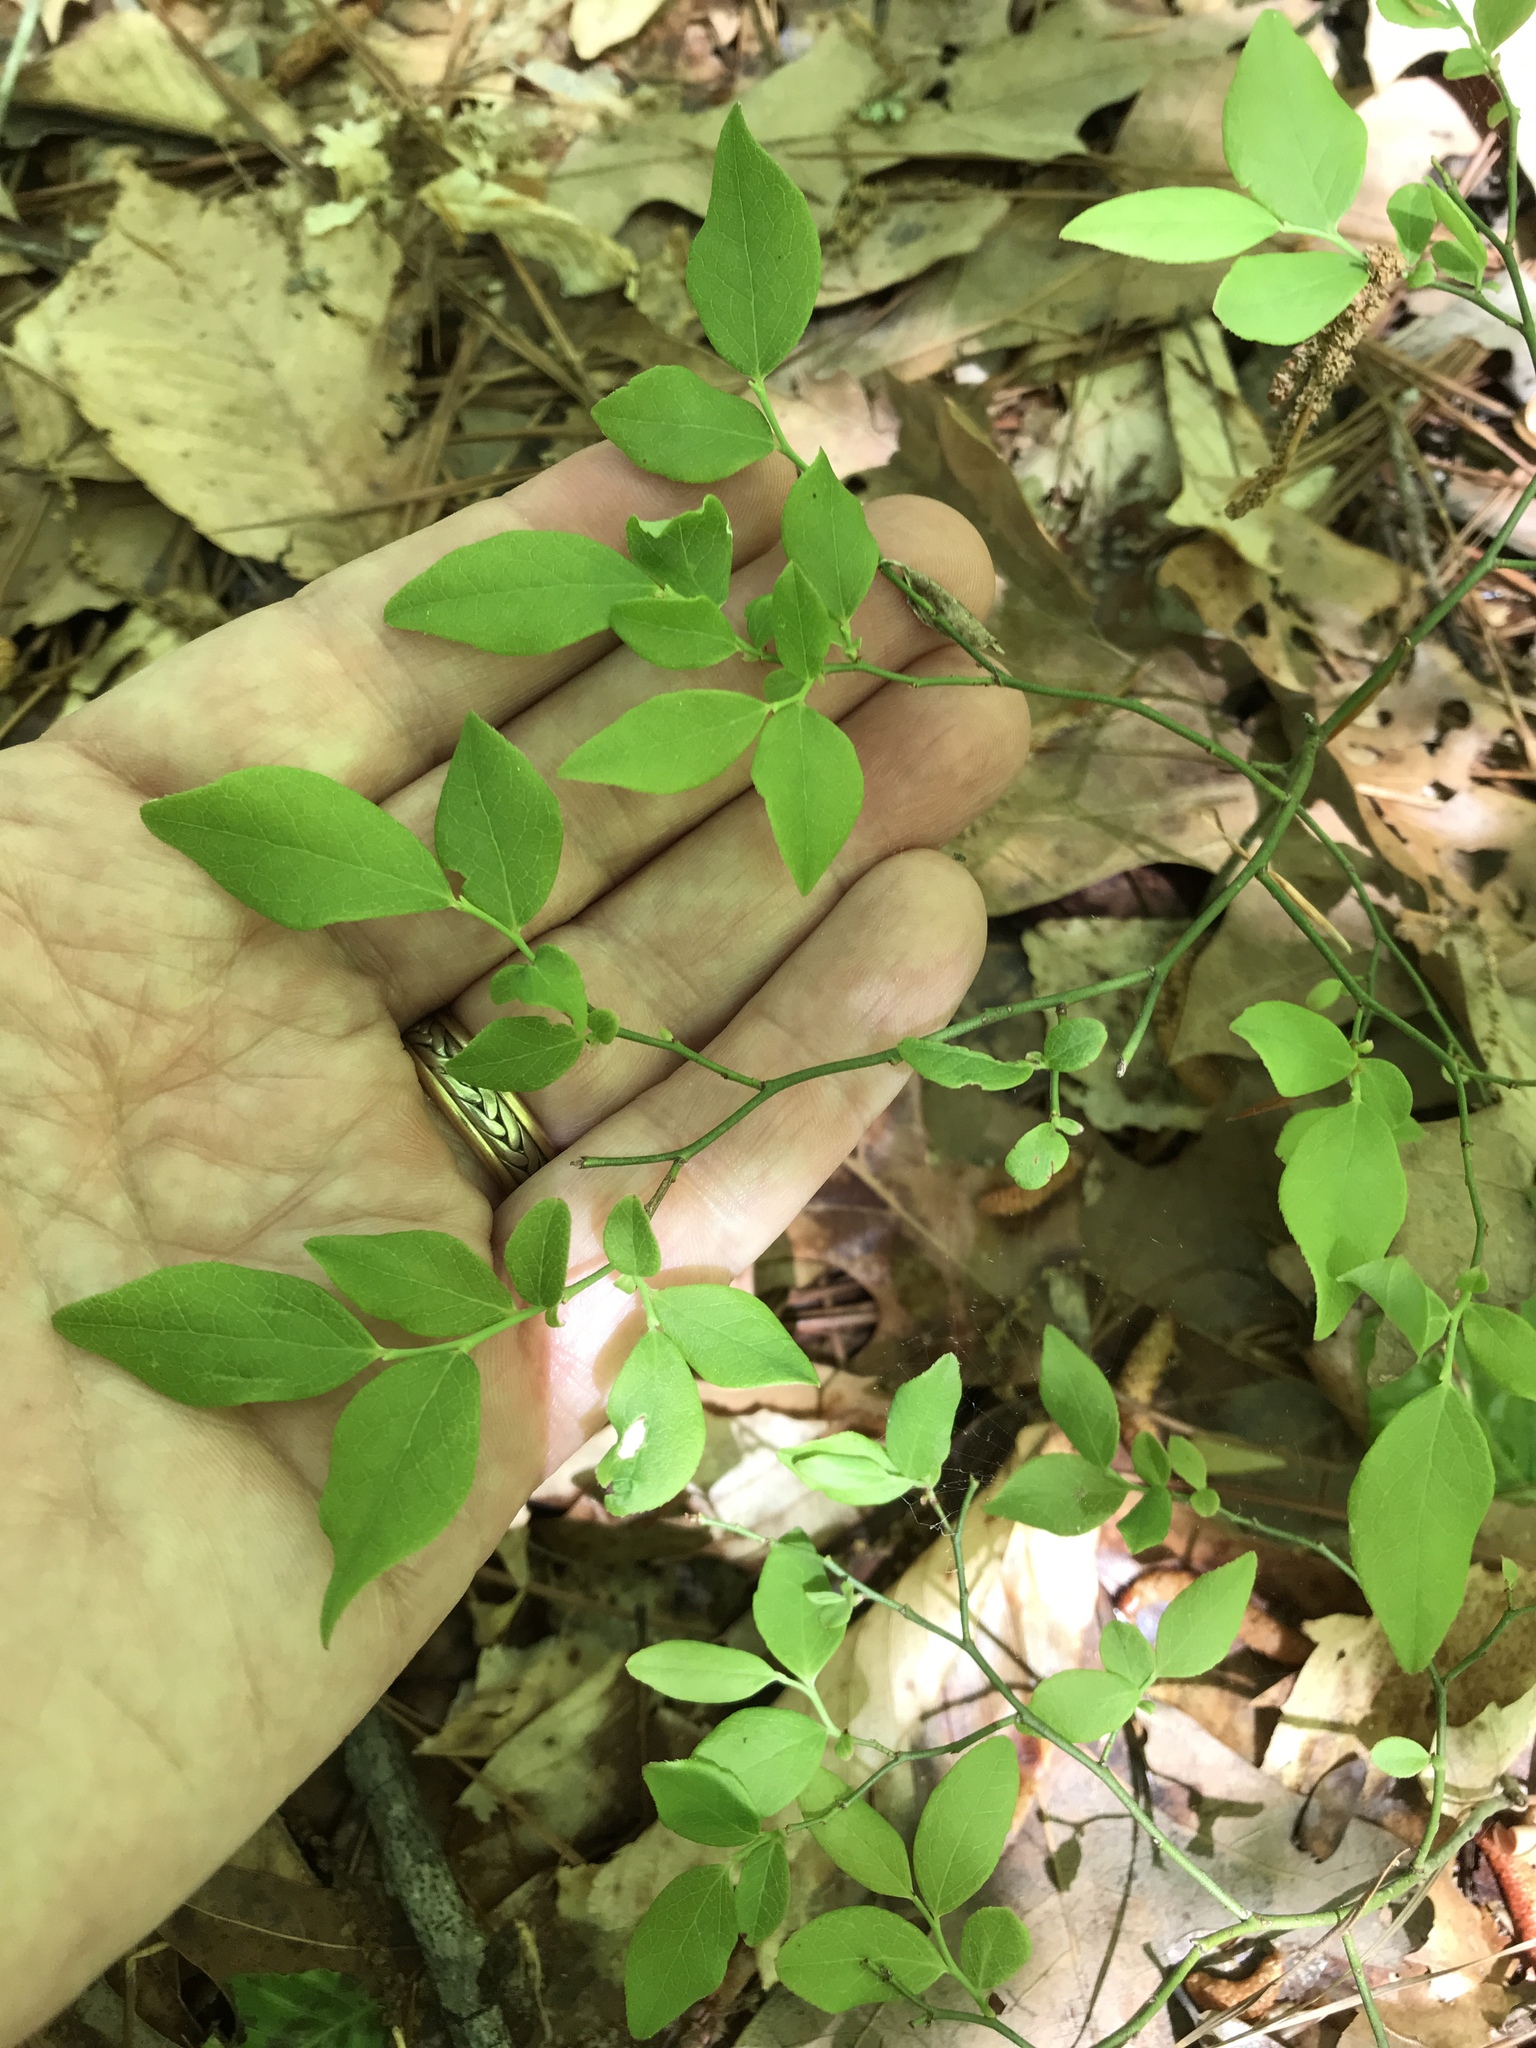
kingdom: Plantae
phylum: Tracheophyta
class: Magnoliopsida
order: Ericales
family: Ericaceae
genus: Vaccinium
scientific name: Vaccinium pallidum
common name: Blue ridge blueberry
